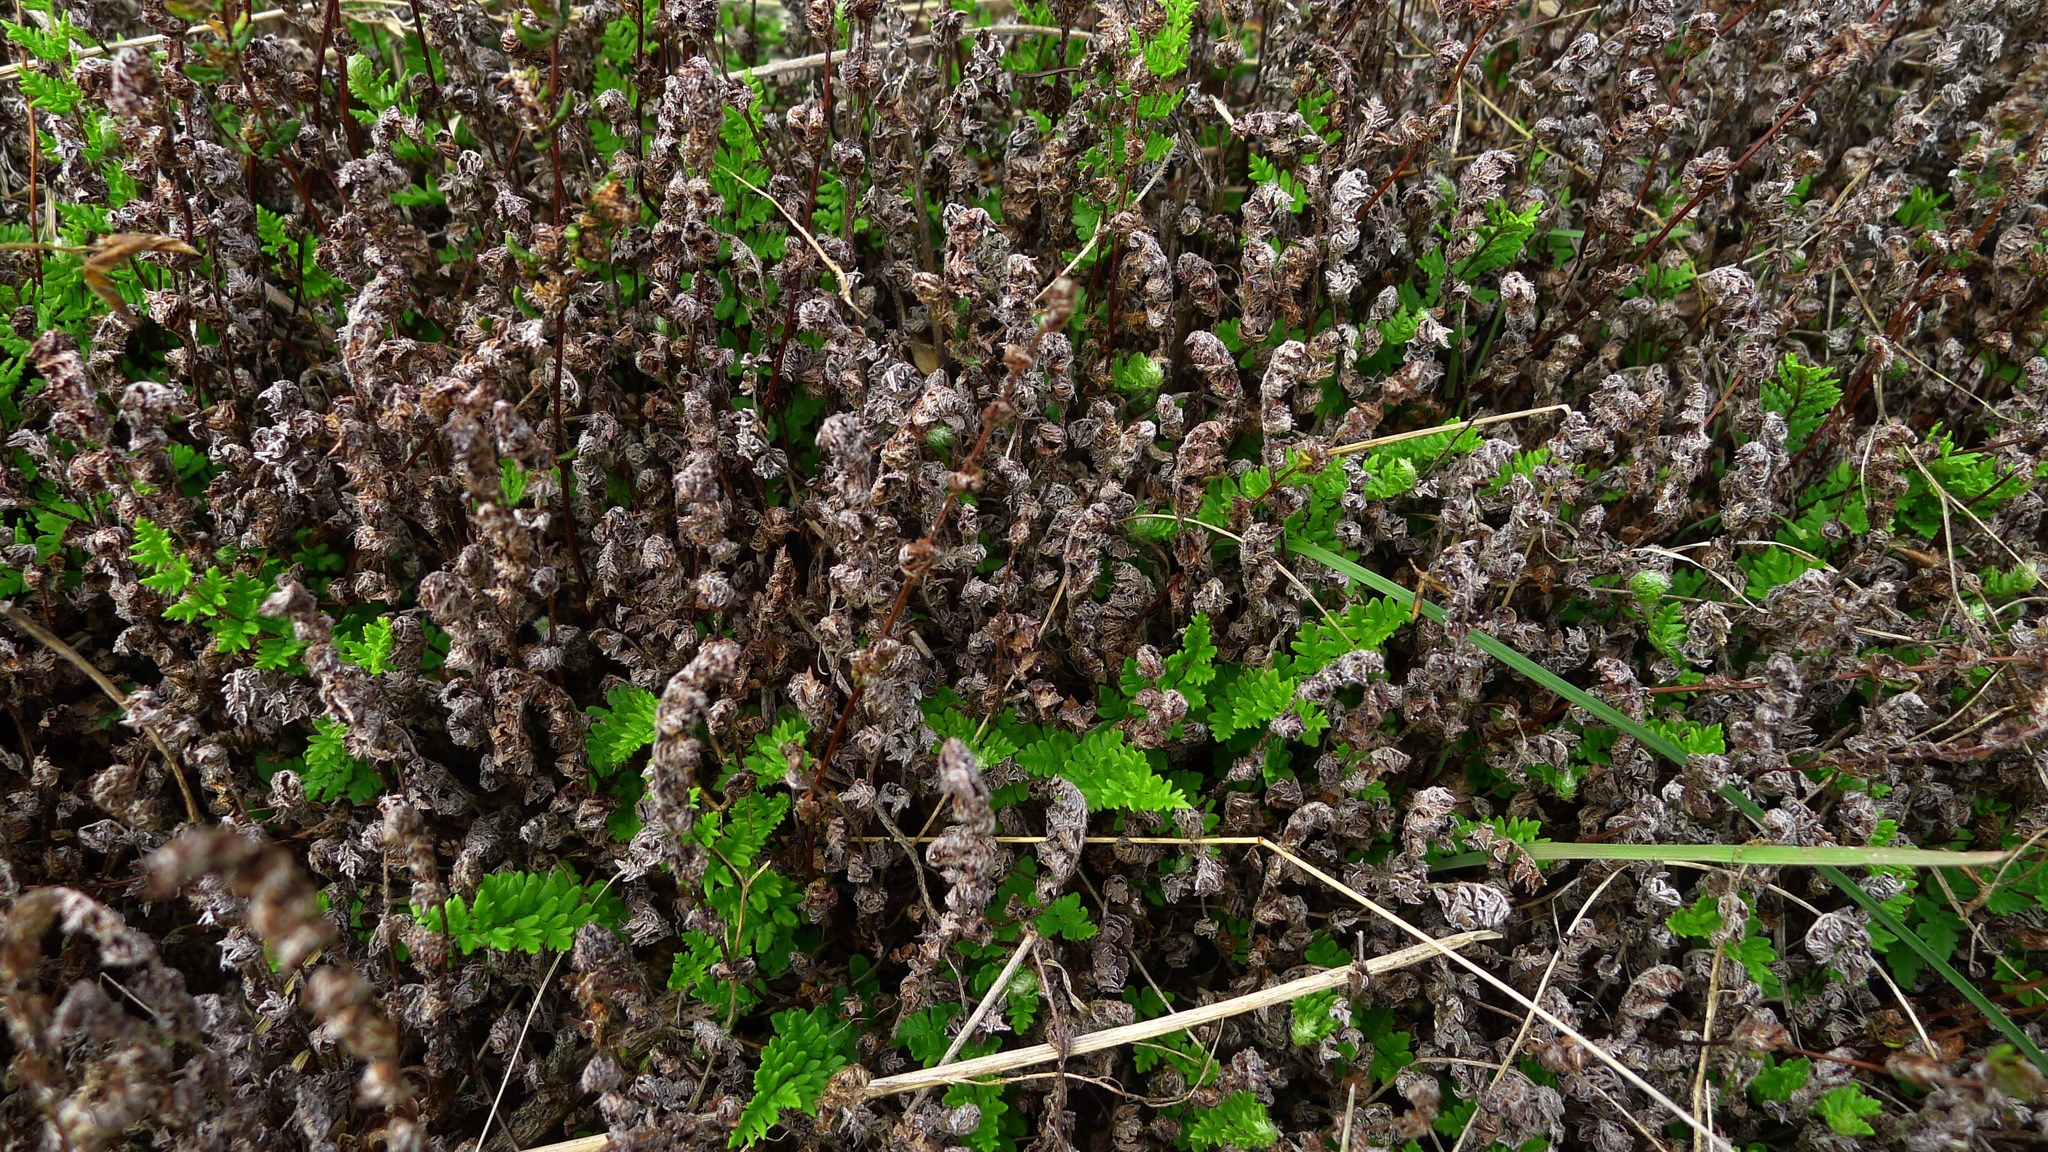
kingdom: Plantae
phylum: Tracheophyta
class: Polypodiopsida
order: Polypodiales
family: Pteridaceae
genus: Cheilanthes
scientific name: Cheilanthes sieberi
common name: Mulga fern
